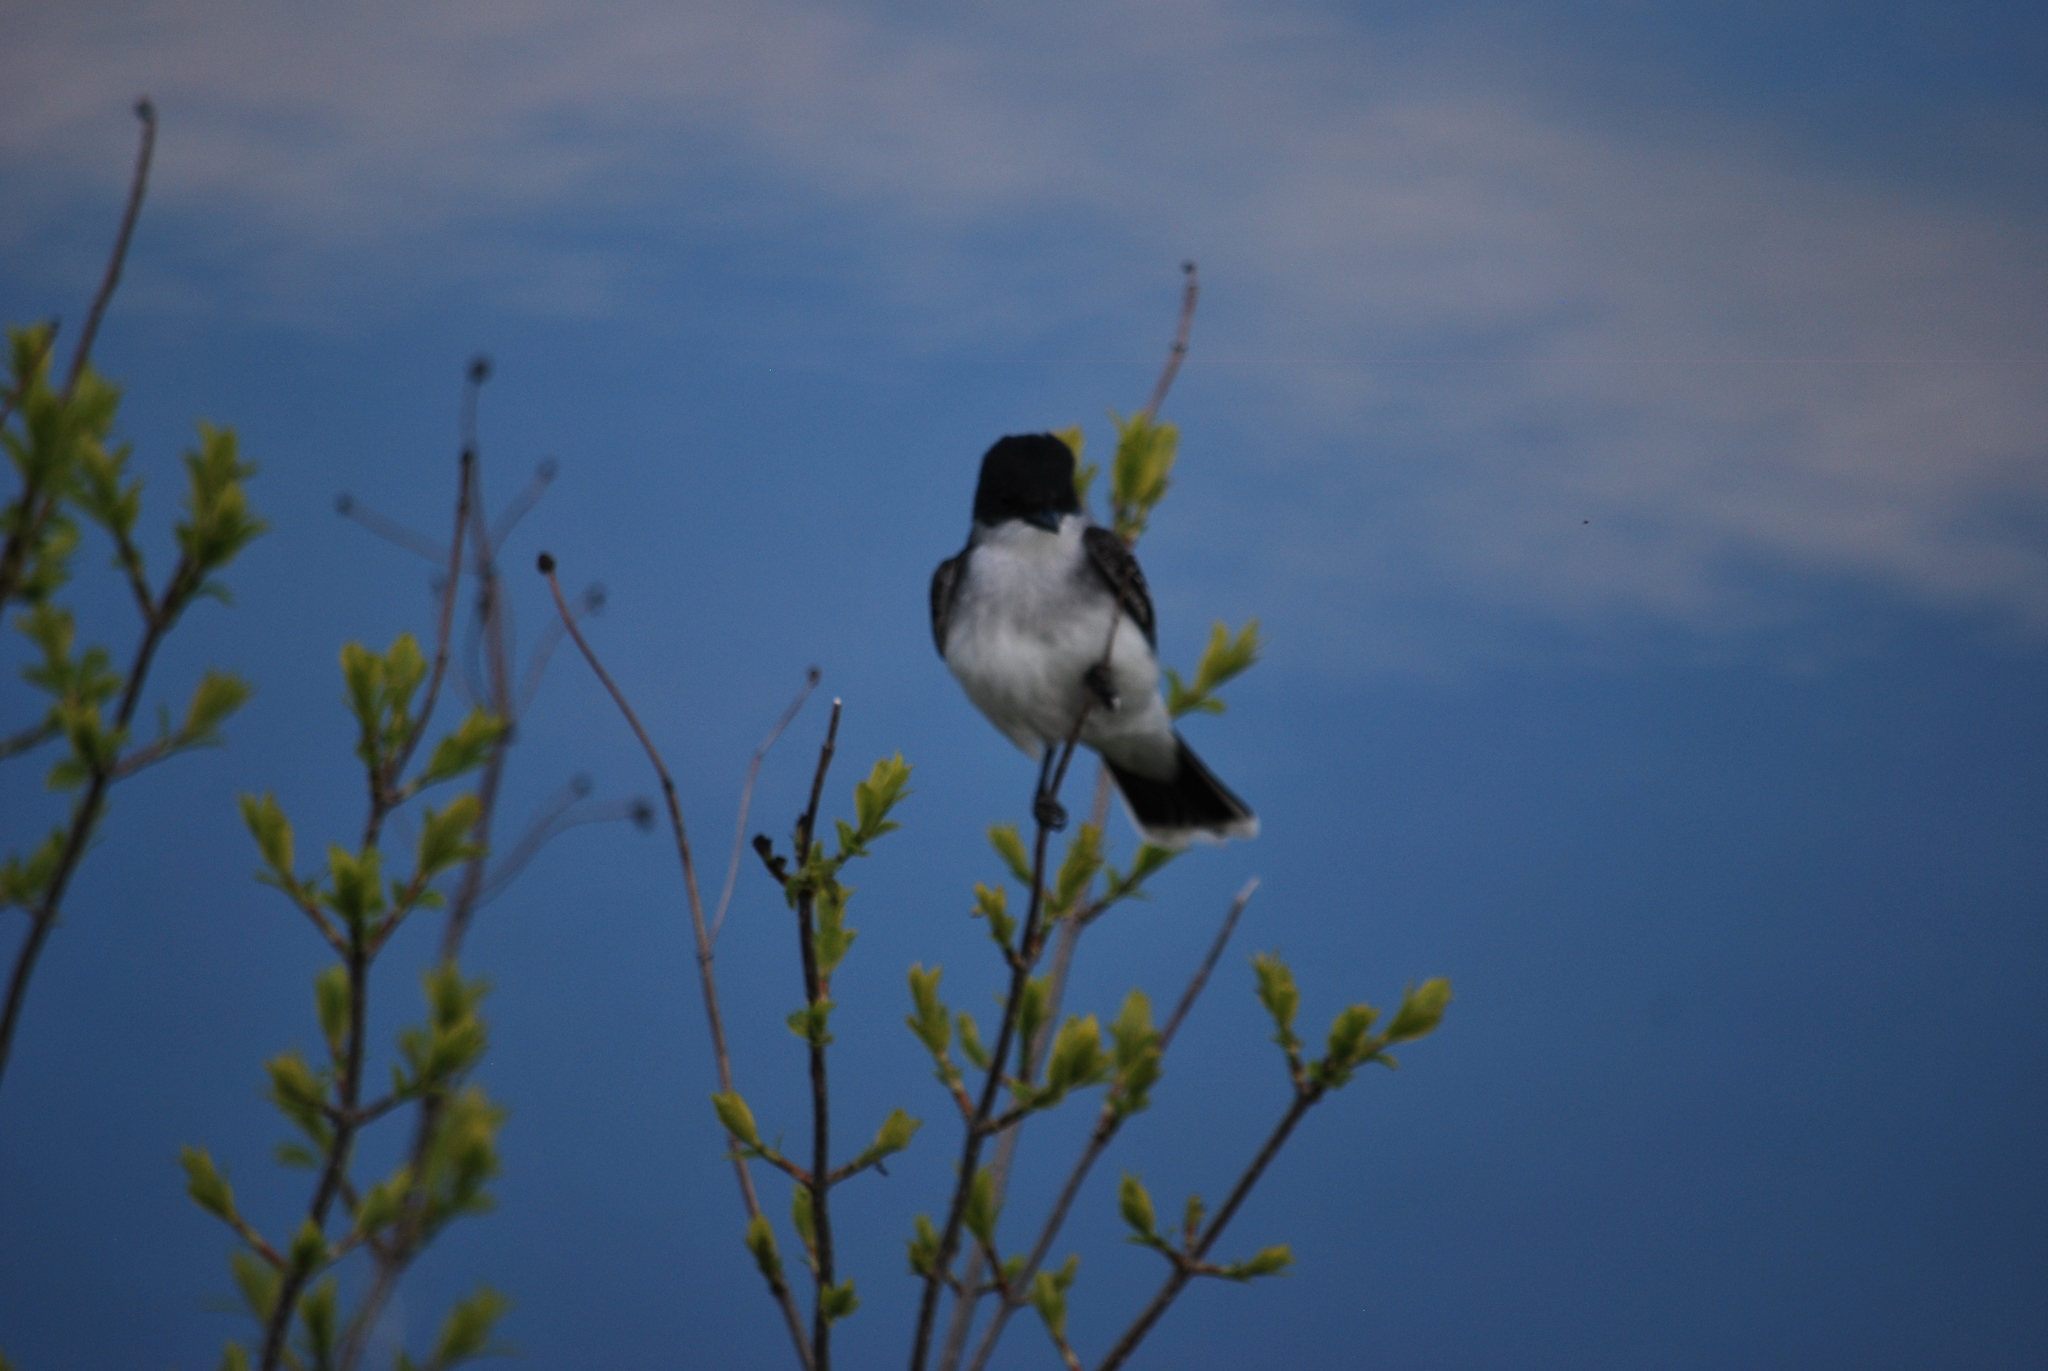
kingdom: Animalia
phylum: Chordata
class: Aves
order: Passeriformes
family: Tyrannidae
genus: Tyrannus
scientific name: Tyrannus tyrannus
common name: Eastern kingbird
